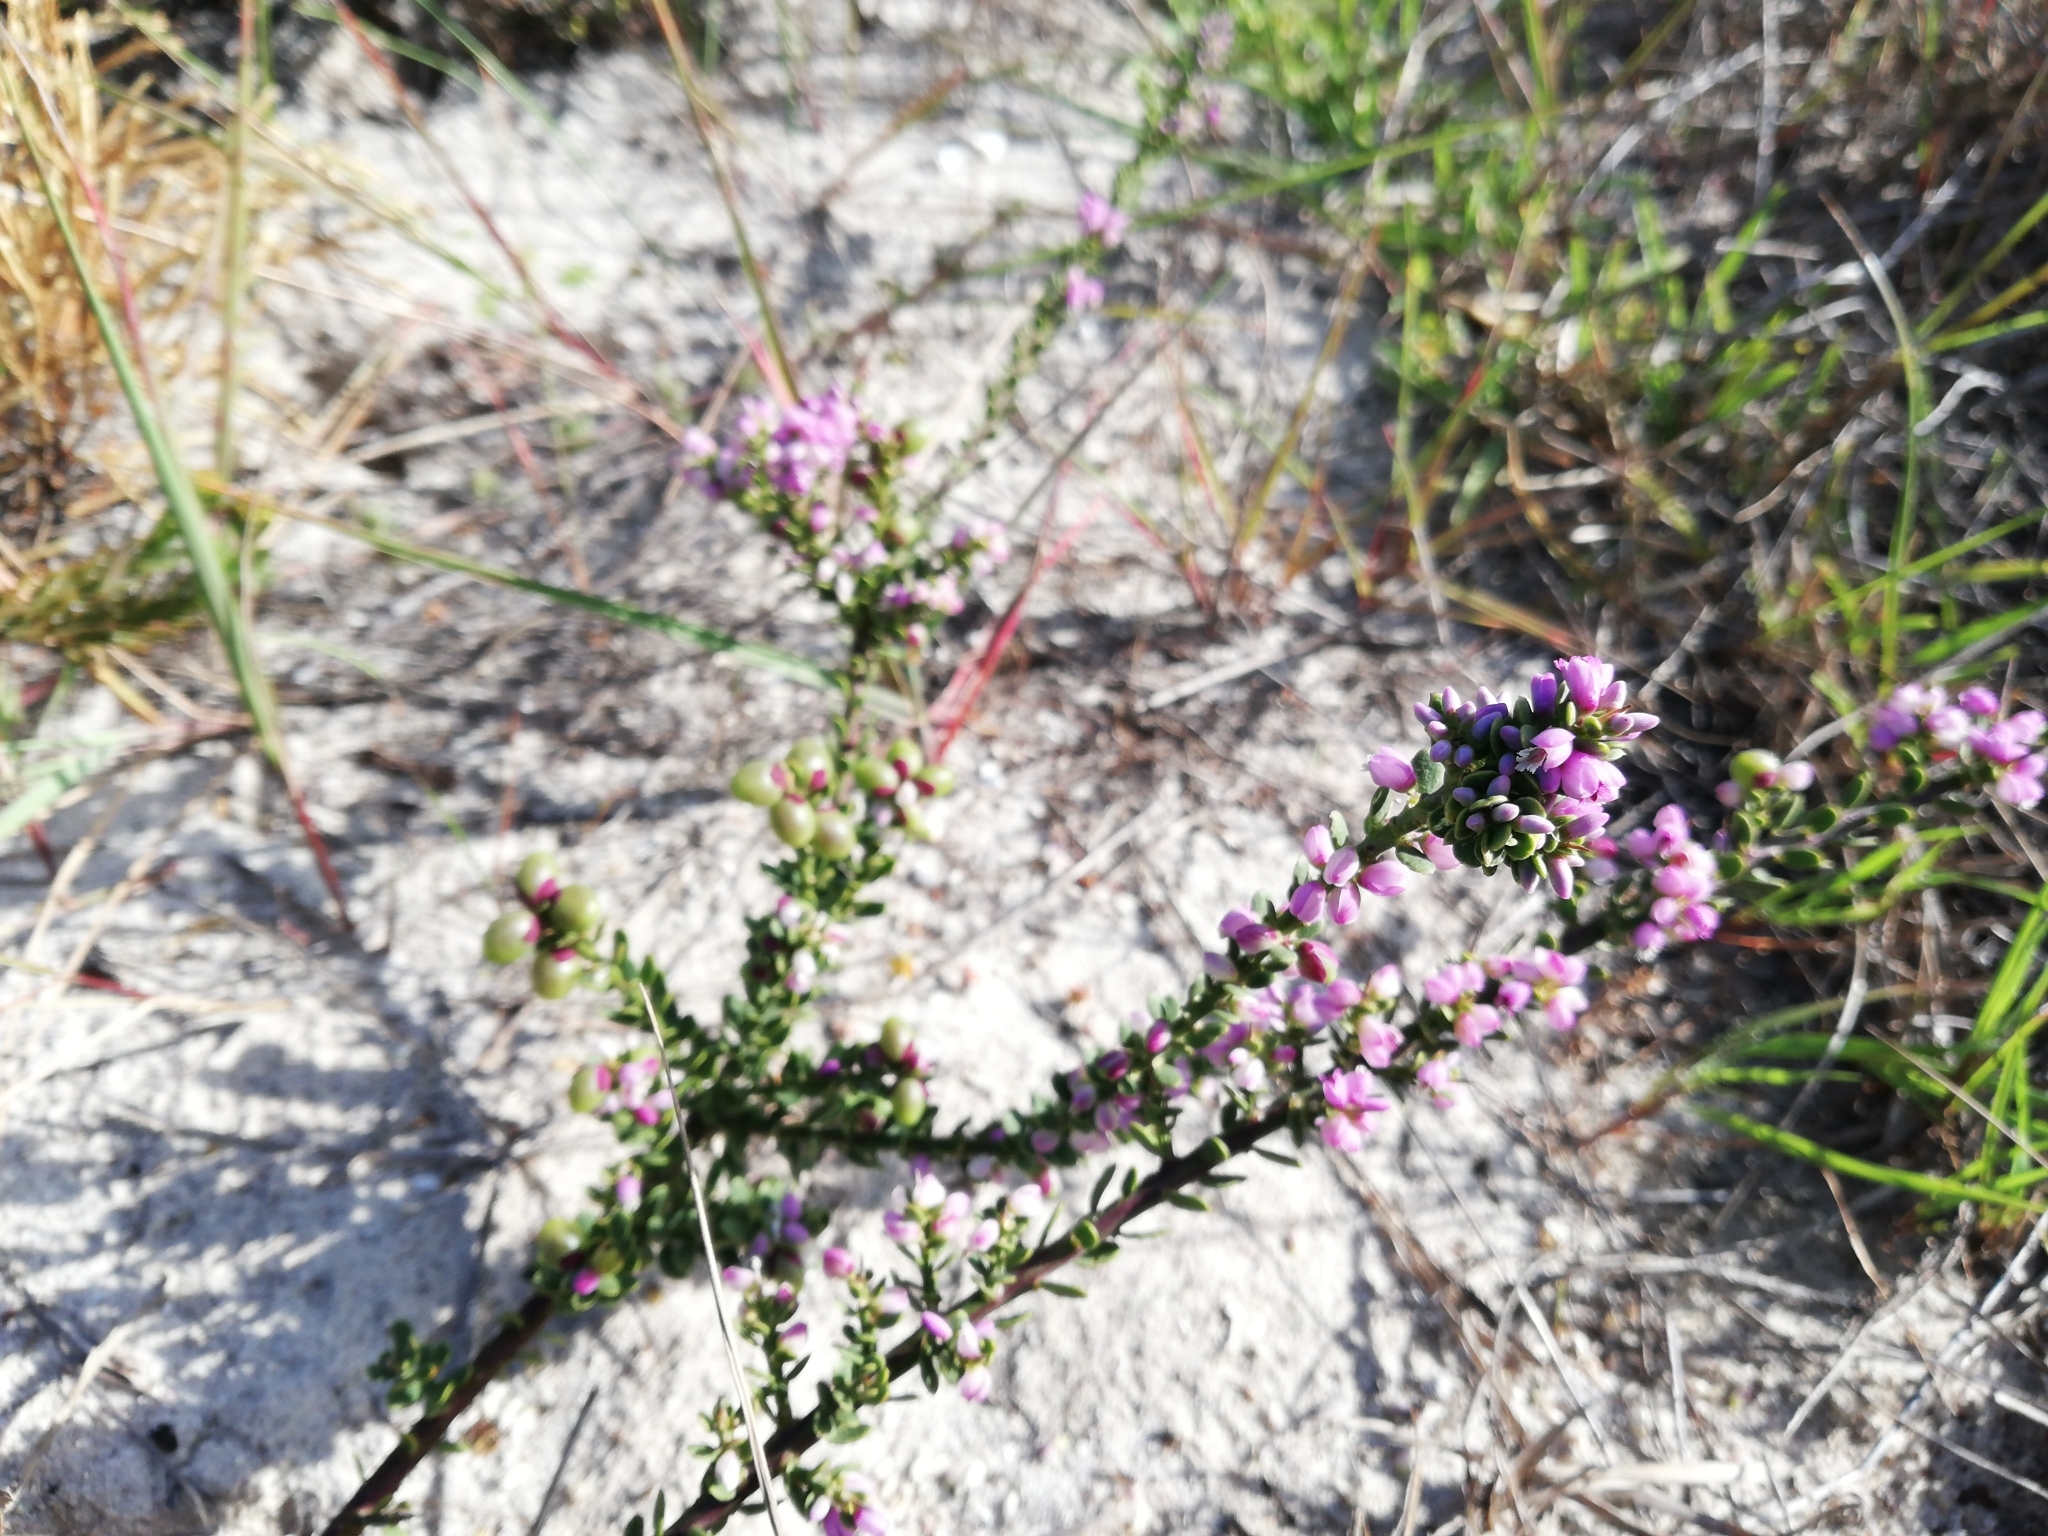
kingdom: Plantae
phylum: Tracheophyta
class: Magnoliopsida
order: Fabales
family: Polygalaceae
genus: Muraltia
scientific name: Muraltia spinosa
